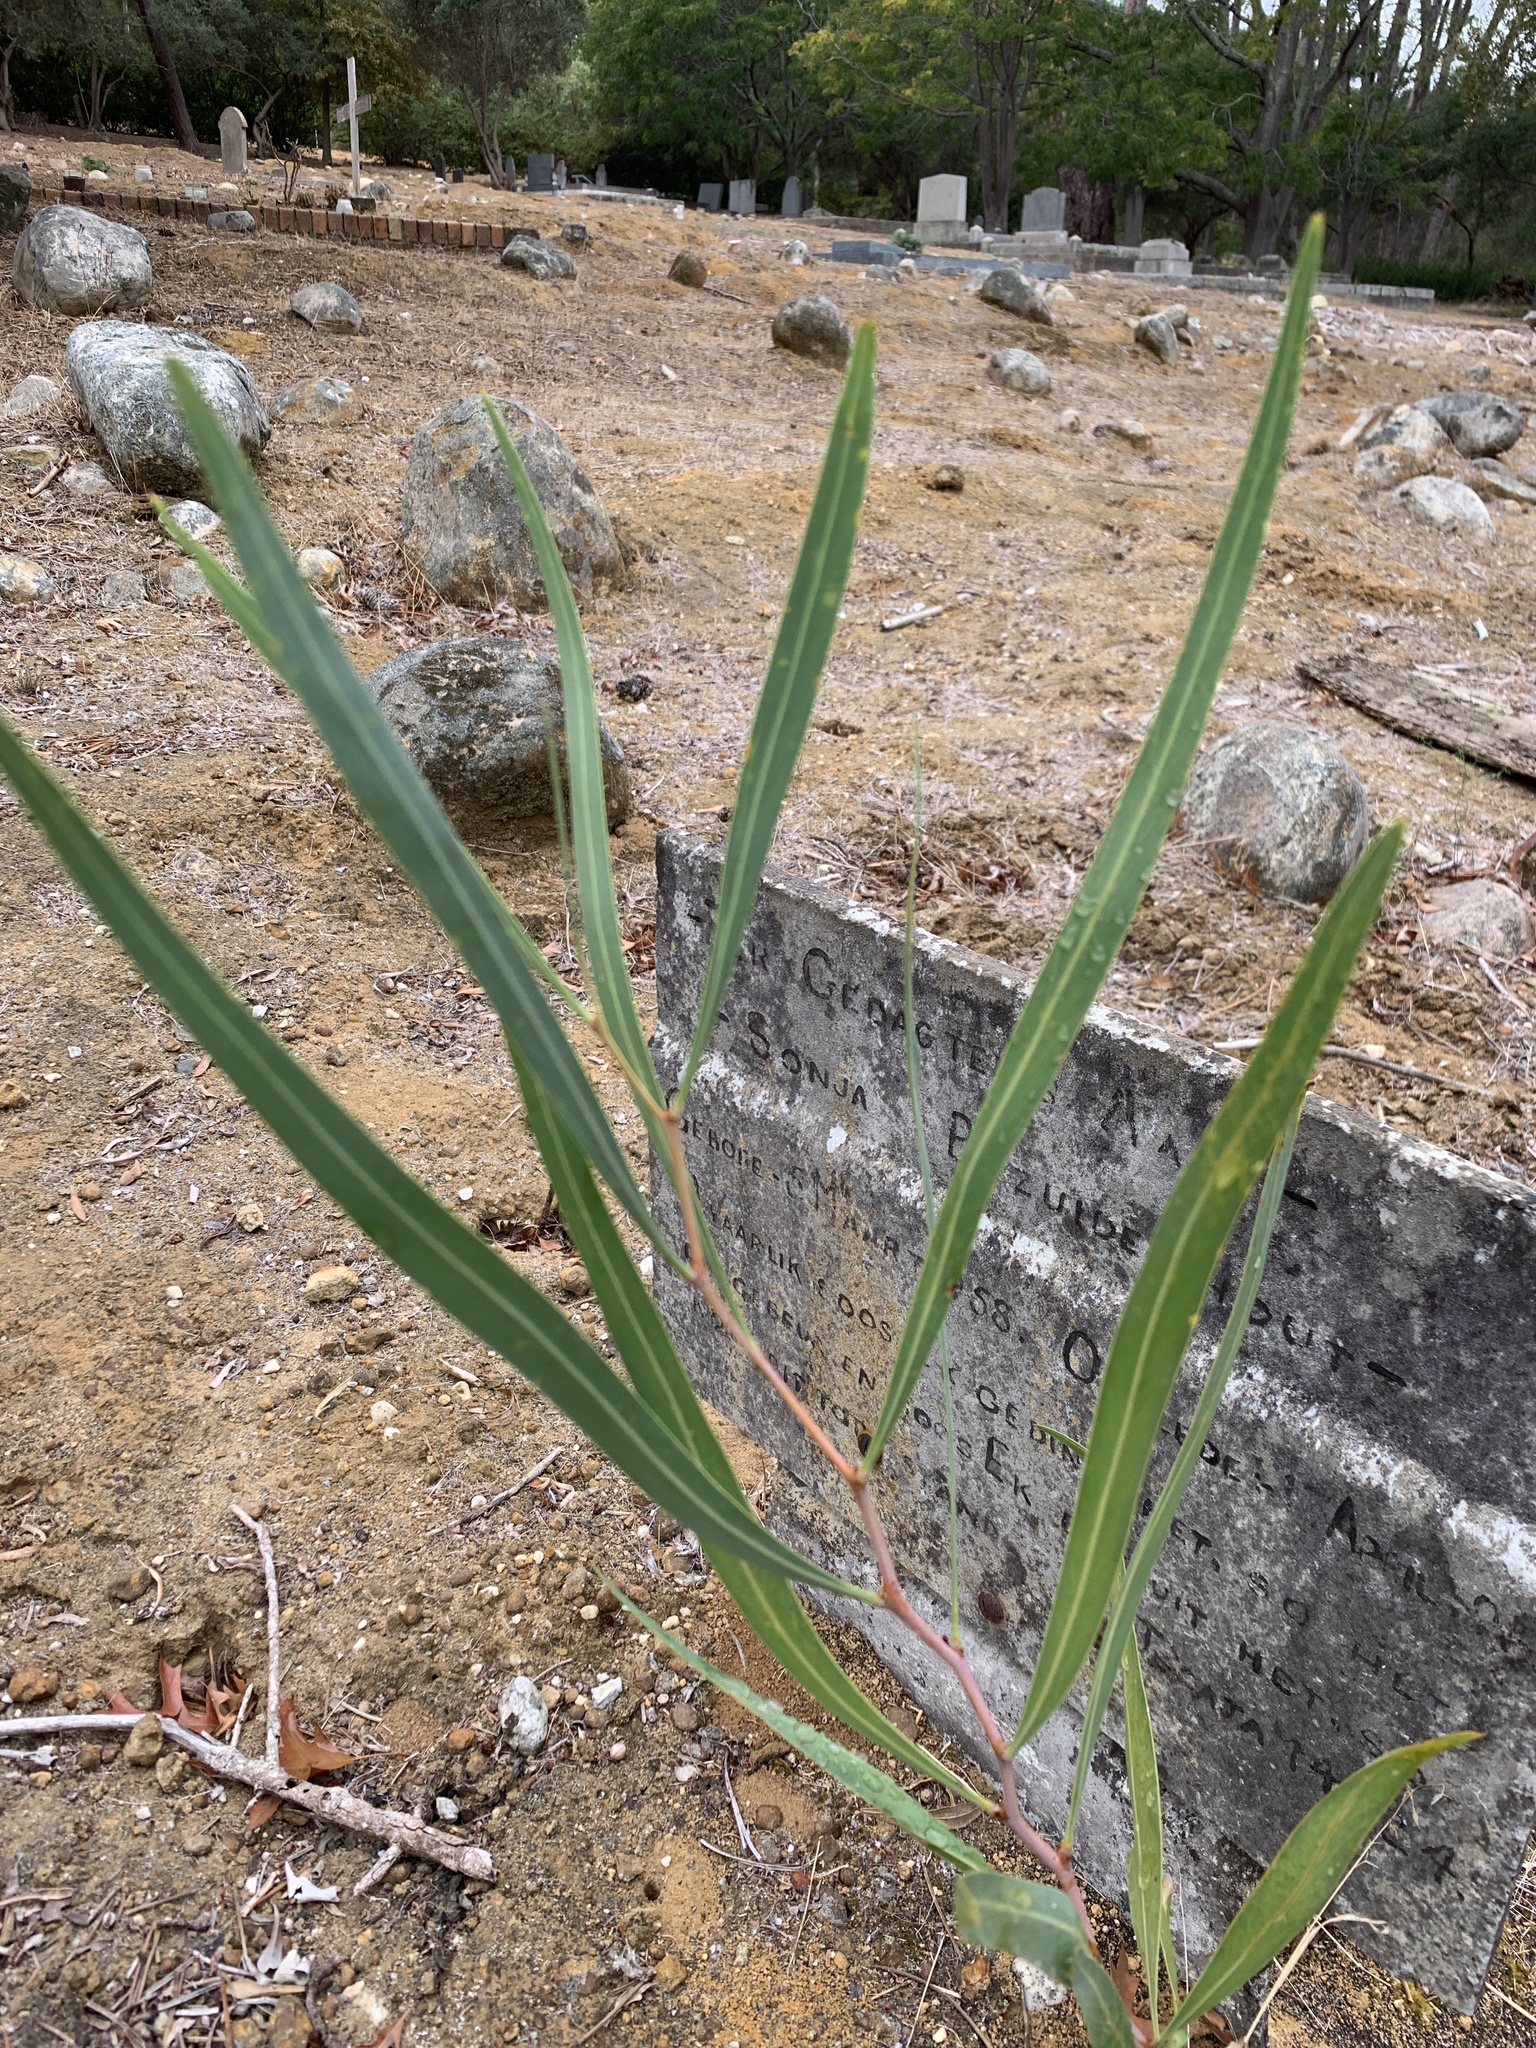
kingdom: Plantae
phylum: Tracheophyta
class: Magnoliopsida
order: Fabales
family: Fabaceae
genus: Acacia
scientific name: Acacia saligna
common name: Orange wattle
